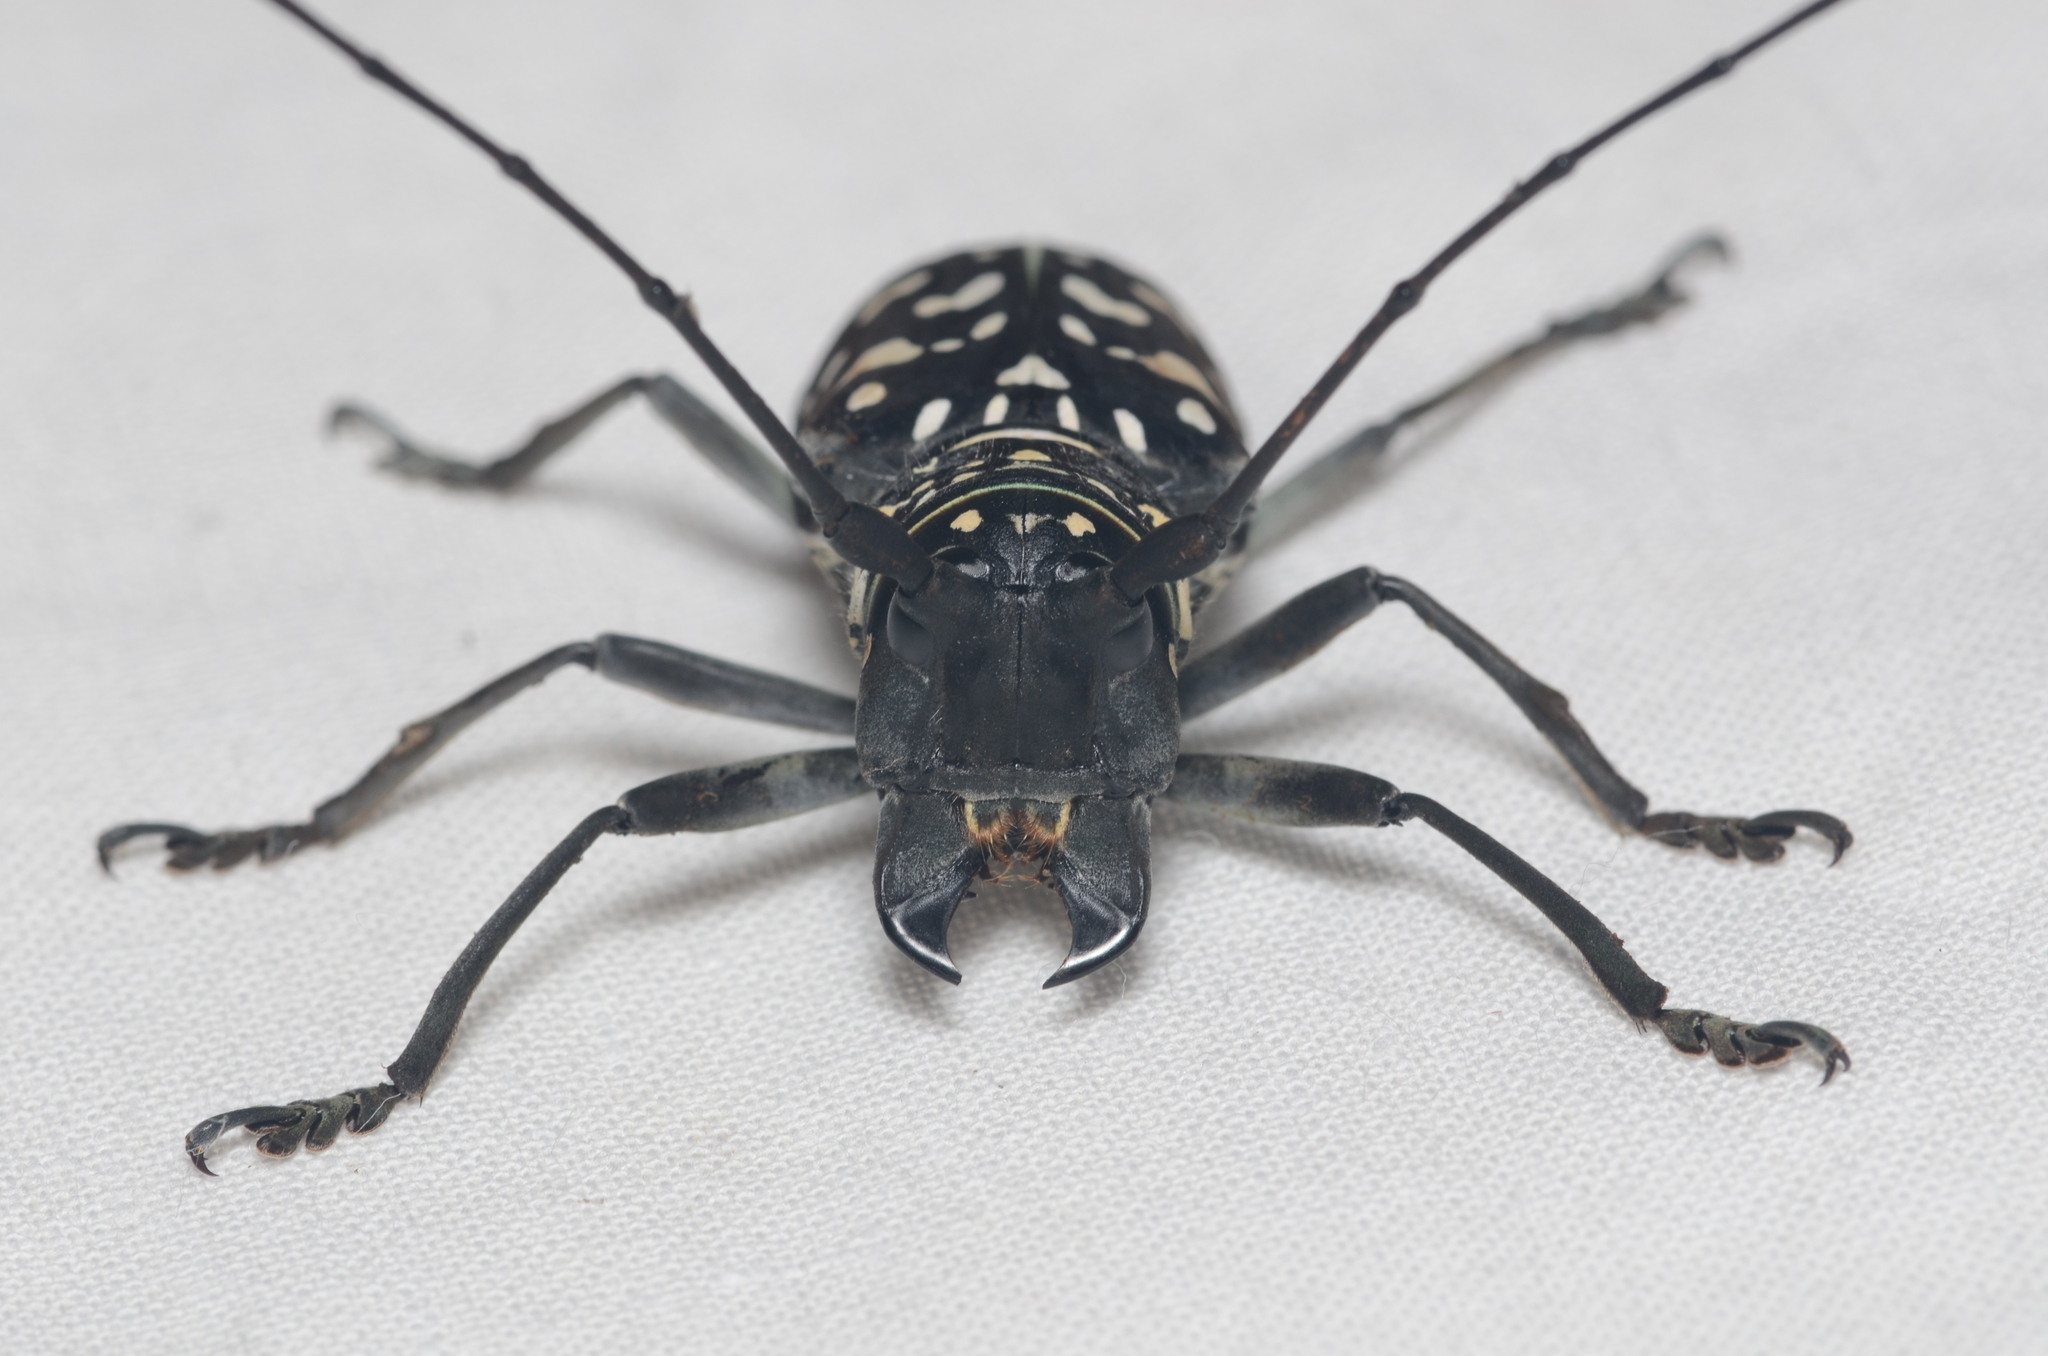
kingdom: Animalia
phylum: Arthropoda
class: Insecta
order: Coleoptera
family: Cerambycidae
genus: Stellognatha
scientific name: Stellognatha maculata
